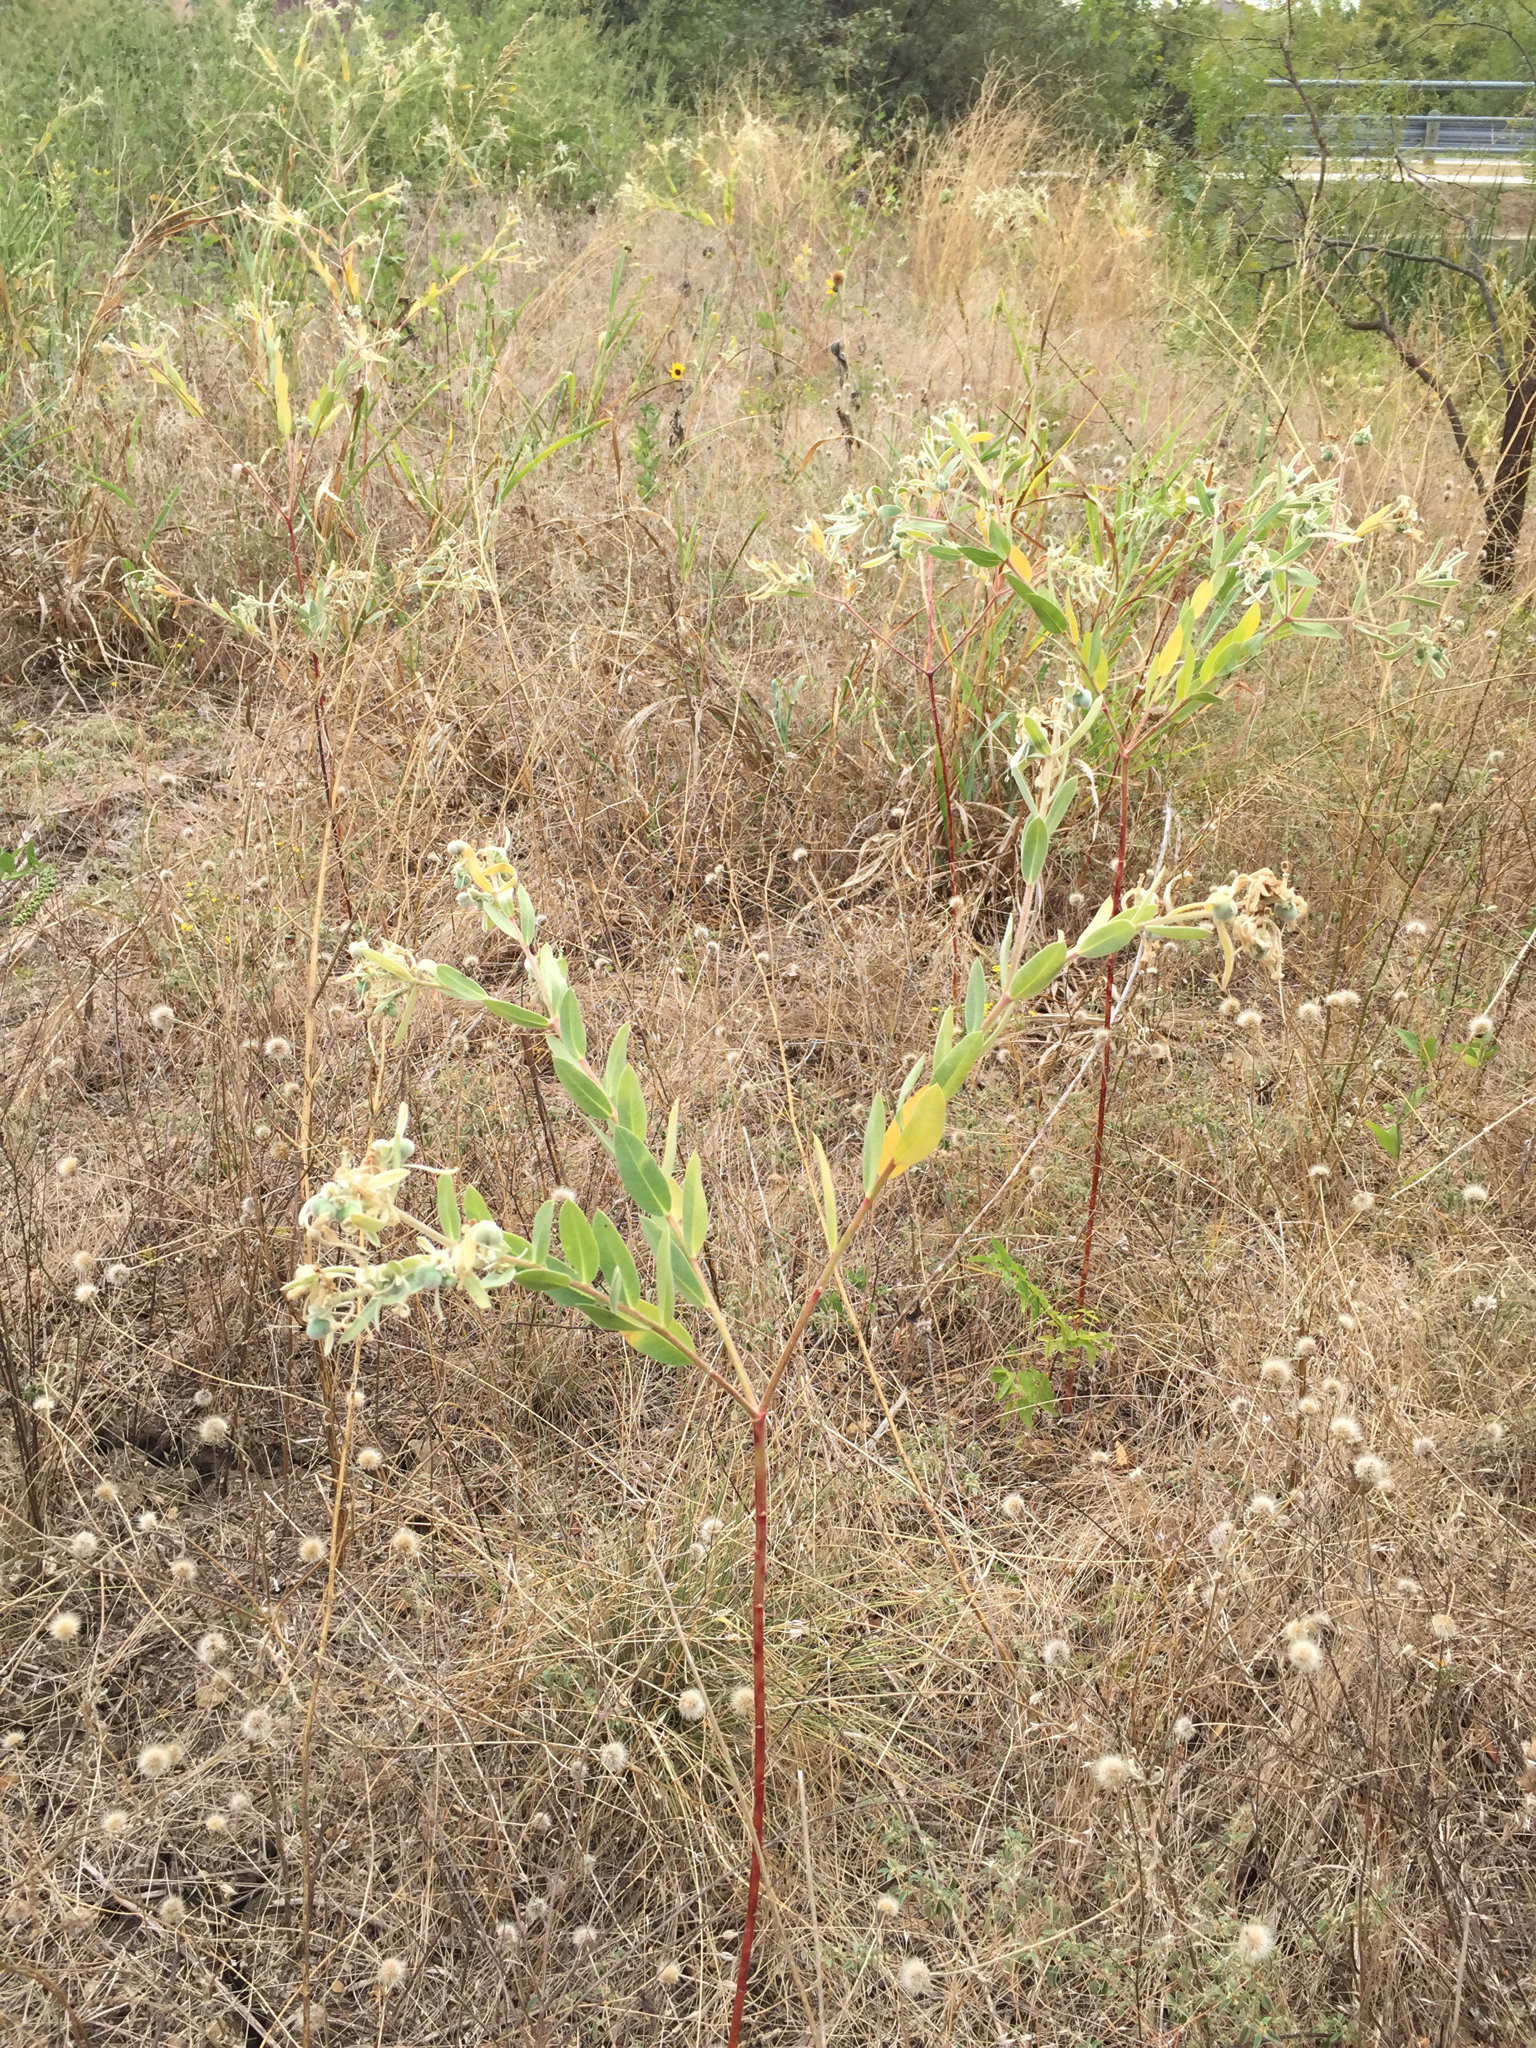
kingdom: Plantae
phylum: Tracheophyta
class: Magnoliopsida
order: Malpighiales
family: Euphorbiaceae
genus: Euphorbia
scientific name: Euphorbia bicolor
